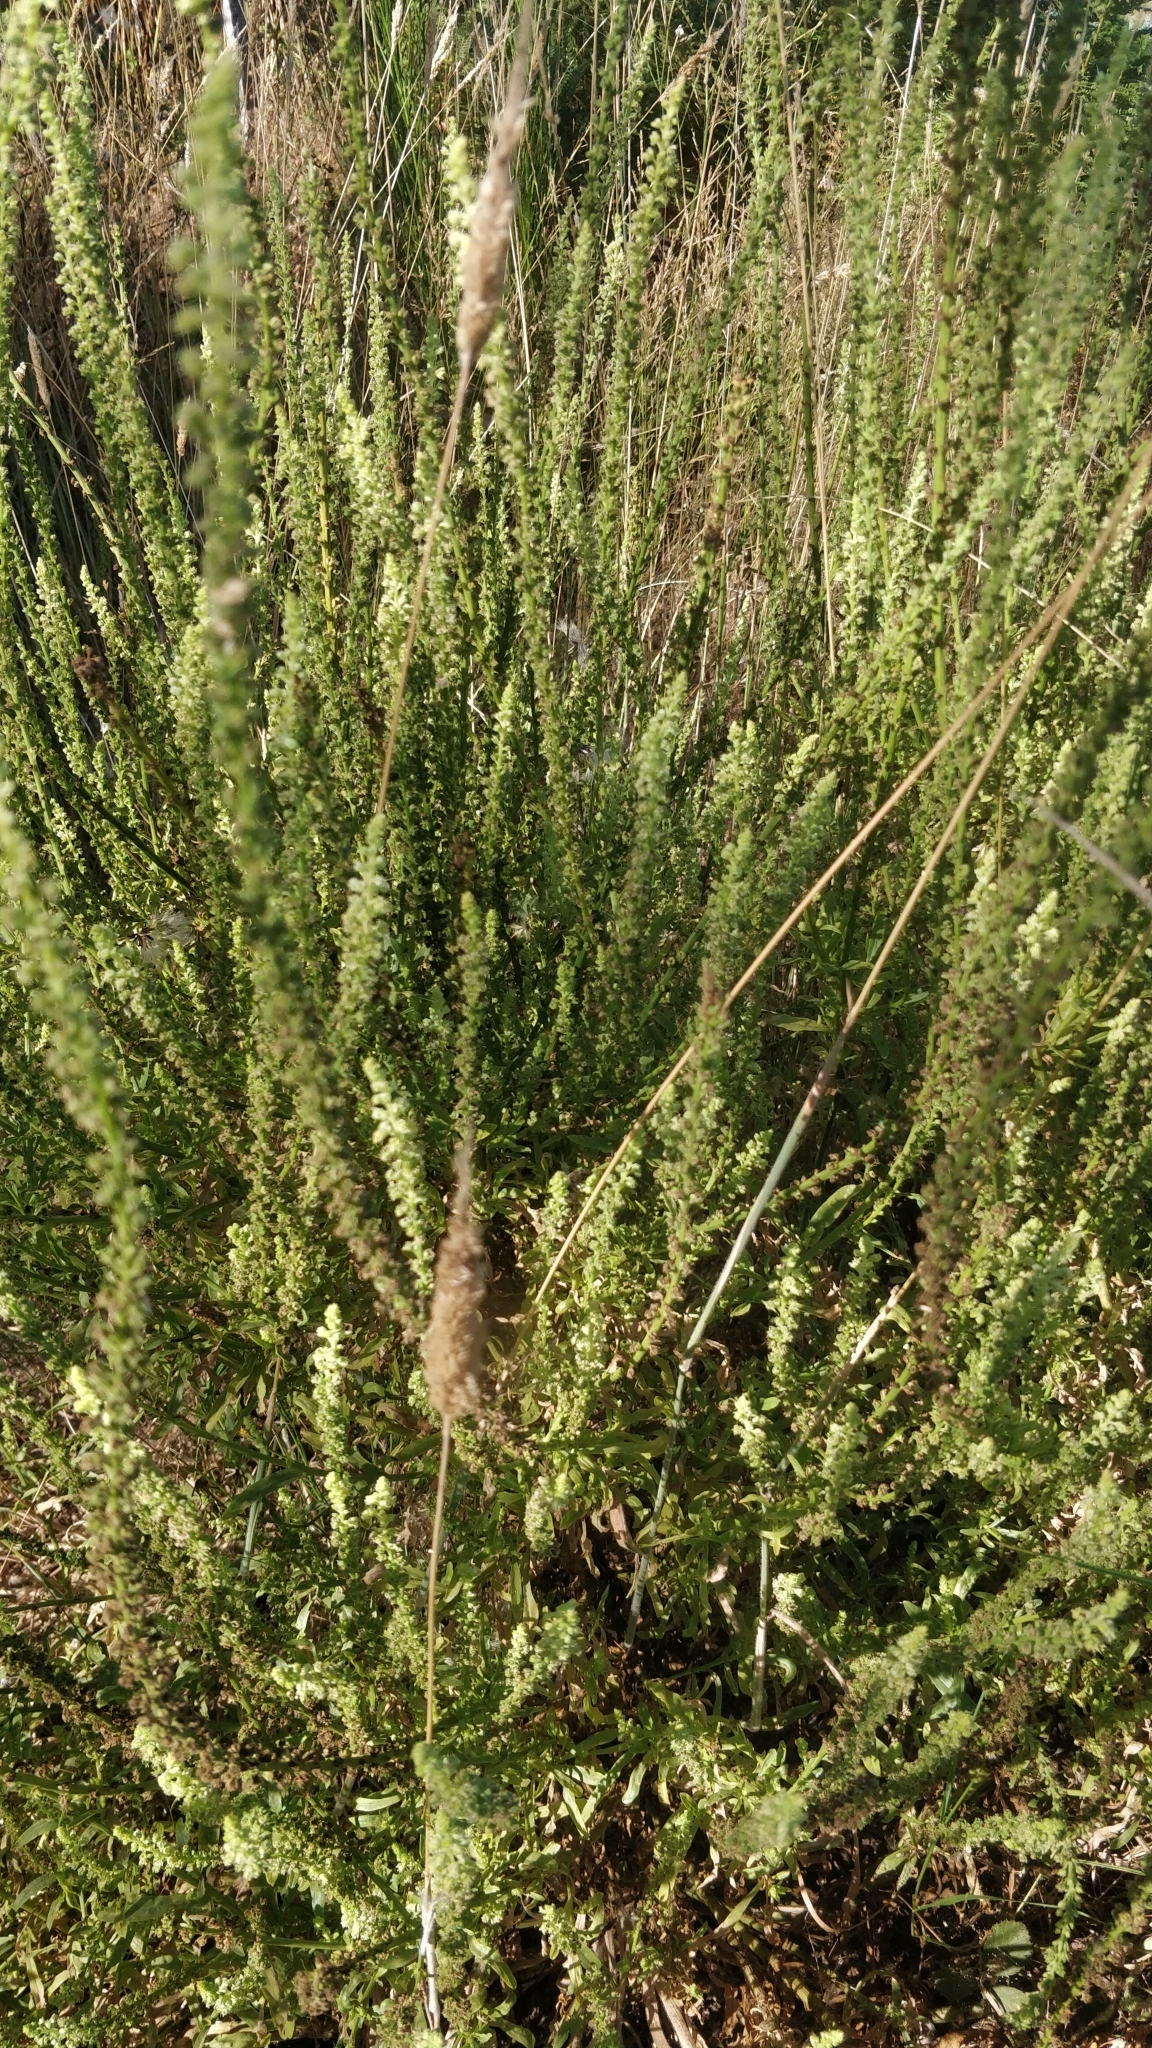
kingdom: Plantae
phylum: Tracheophyta
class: Magnoliopsida
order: Brassicales
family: Resedaceae
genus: Reseda
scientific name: Reseda luteola
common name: Weld
